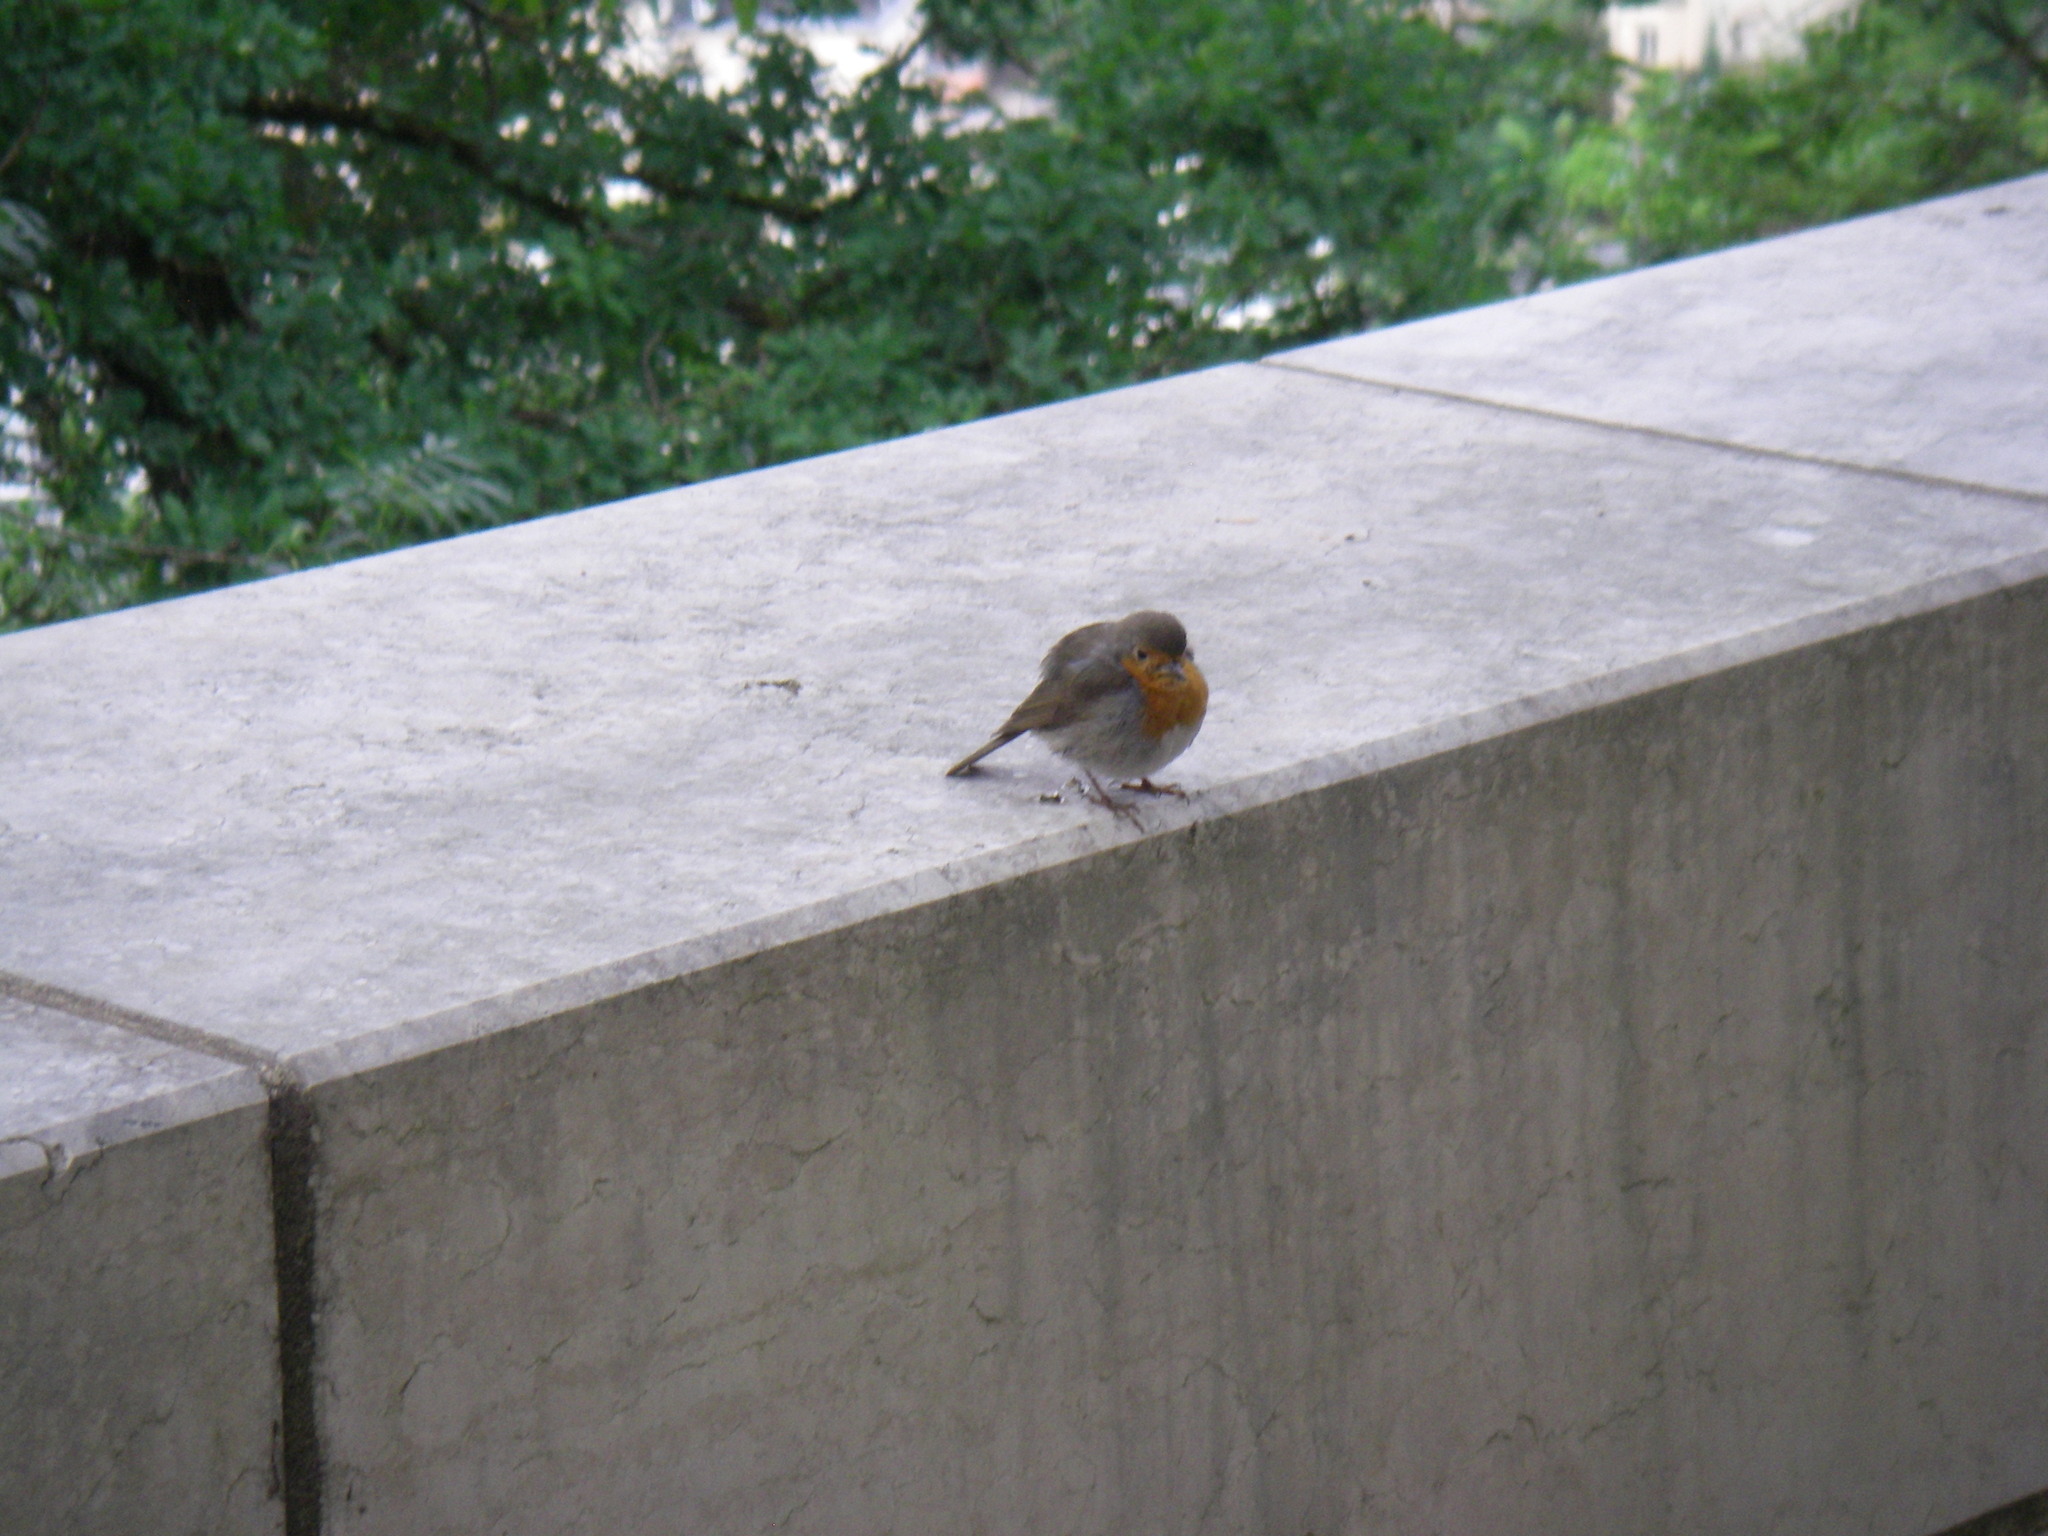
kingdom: Animalia
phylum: Chordata
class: Aves
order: Passeriformes
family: Muscicapidae
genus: Erithacus
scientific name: Erithacus rubecula
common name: European robin
